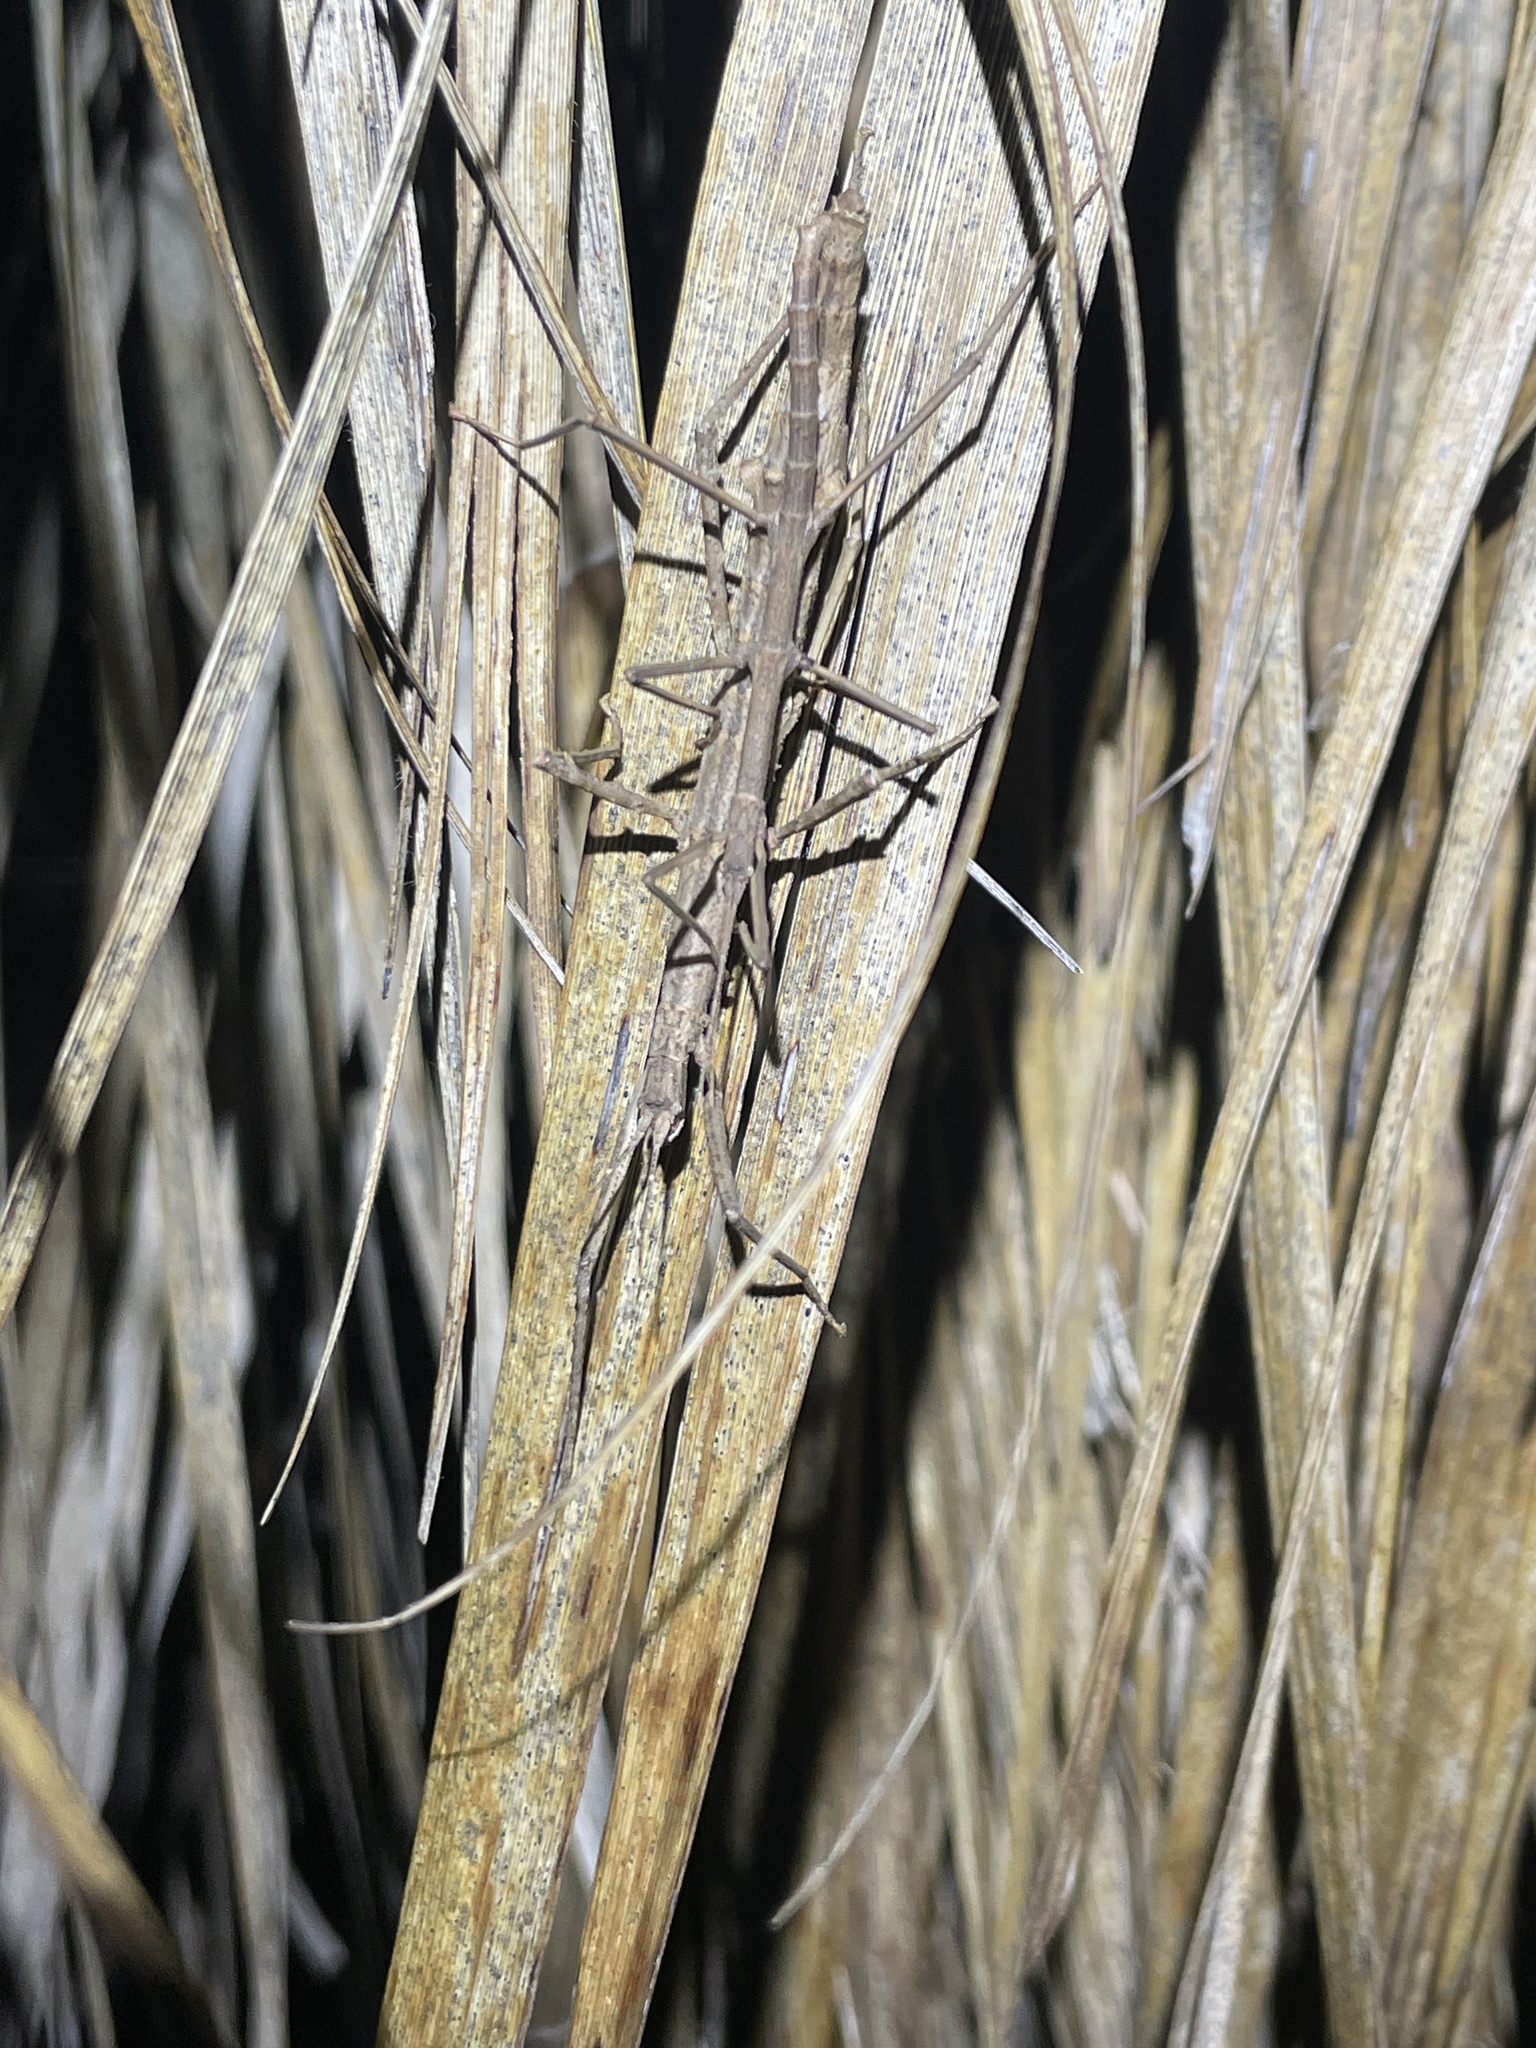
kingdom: Animalia
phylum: Arthropoda
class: Insecta
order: Phasmida
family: Phasmatidae
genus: Niveaphasma
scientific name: Niveaphasma annulatum
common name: Hutton's stick insect
